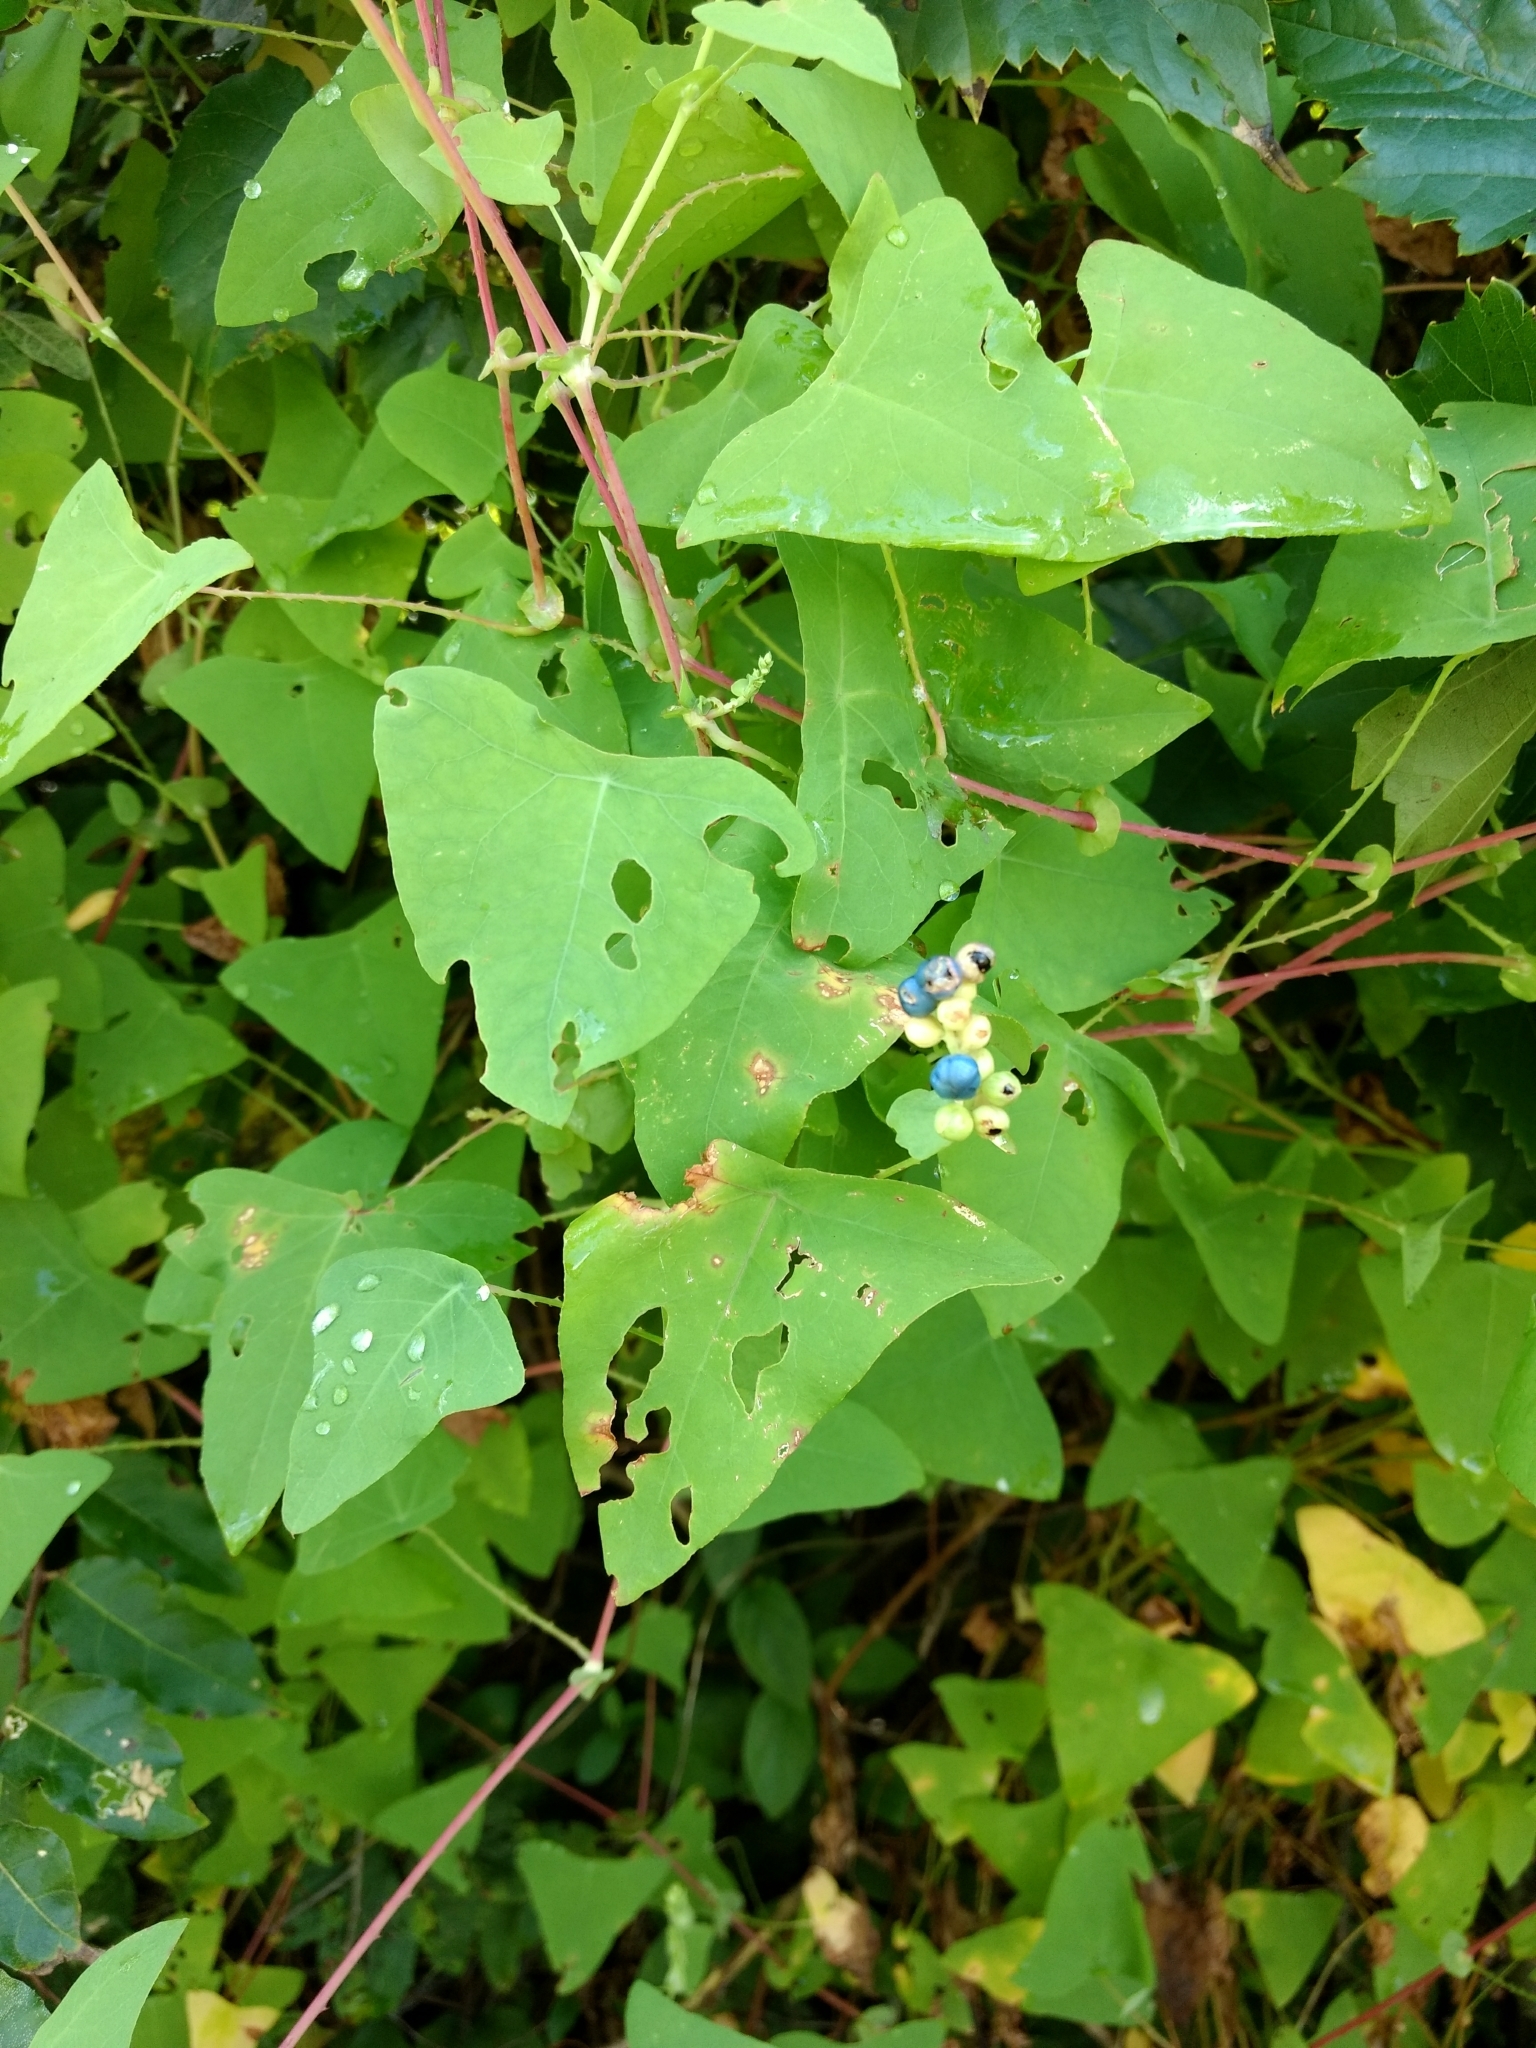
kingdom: Plantae
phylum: Tracheophyta
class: Magnoliopsida
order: Caryophyllales
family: Polygonaceae
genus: Persicaria
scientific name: Persicaria perfoliata
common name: Asiatic tearthumb
